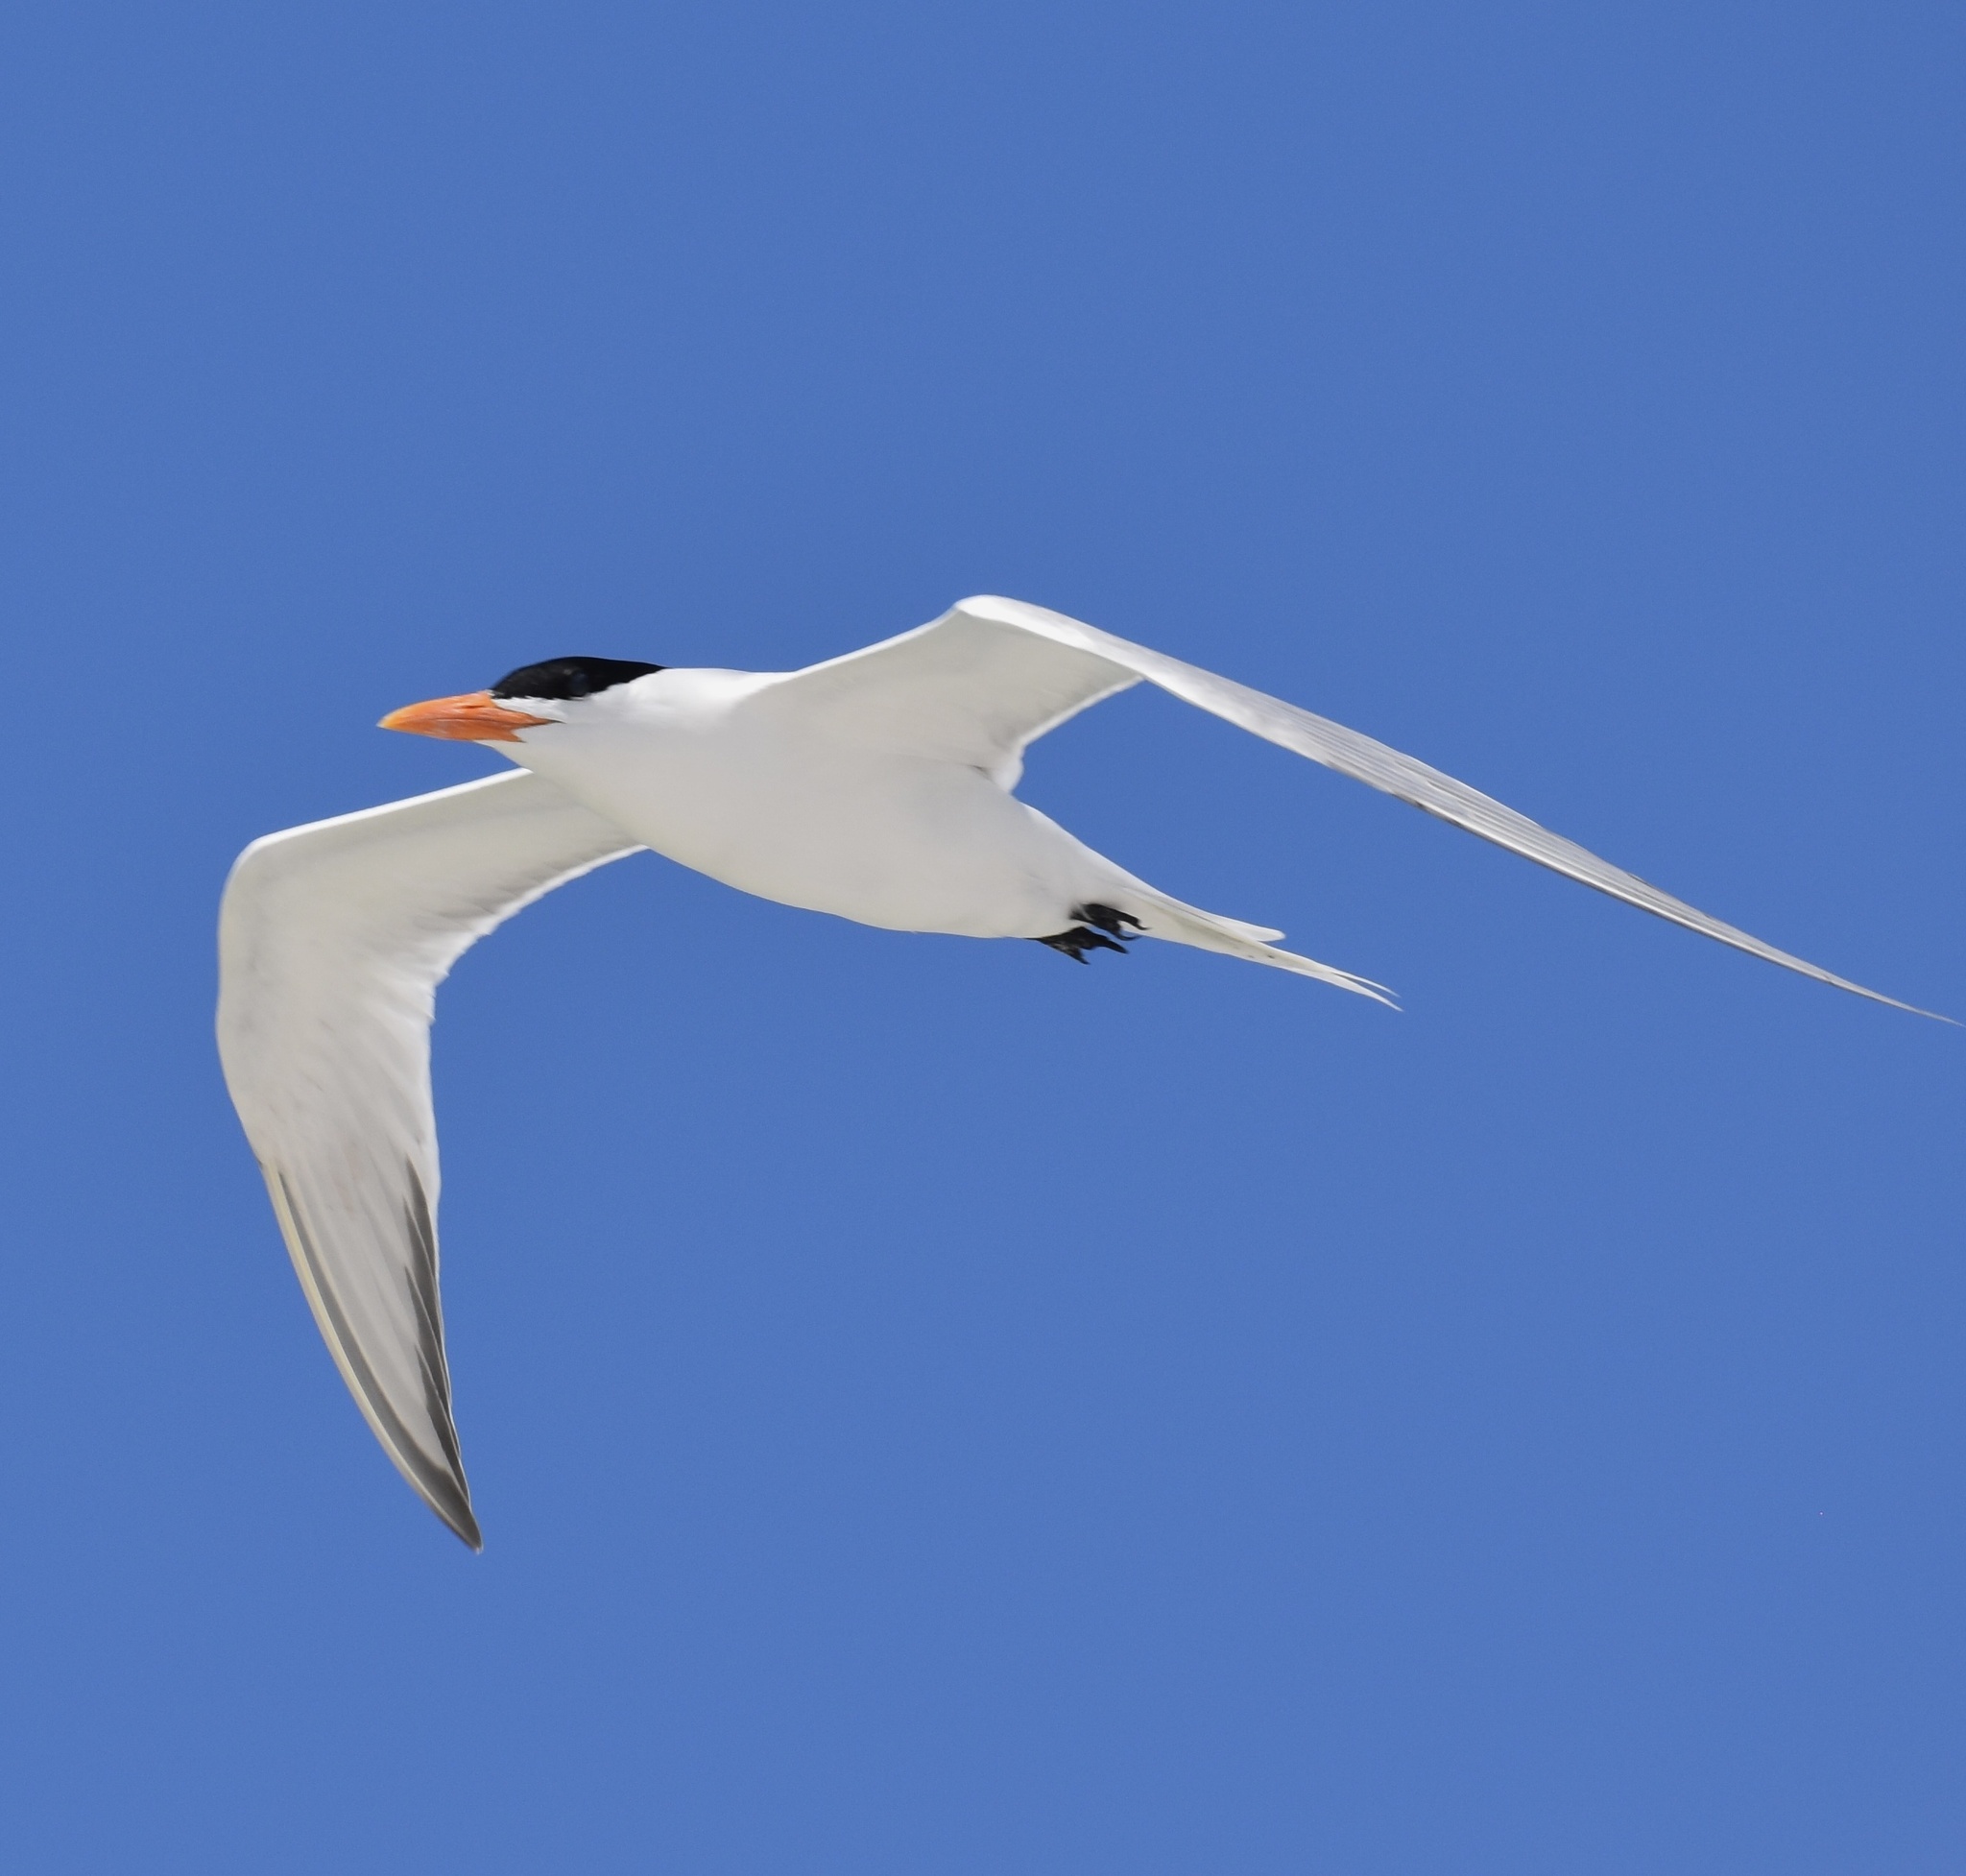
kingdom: Animalia
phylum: Chordata
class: Aves
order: Charadriiformes
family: Laridae
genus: Thalasseus
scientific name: Thalasseus maximus
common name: Royal tern
